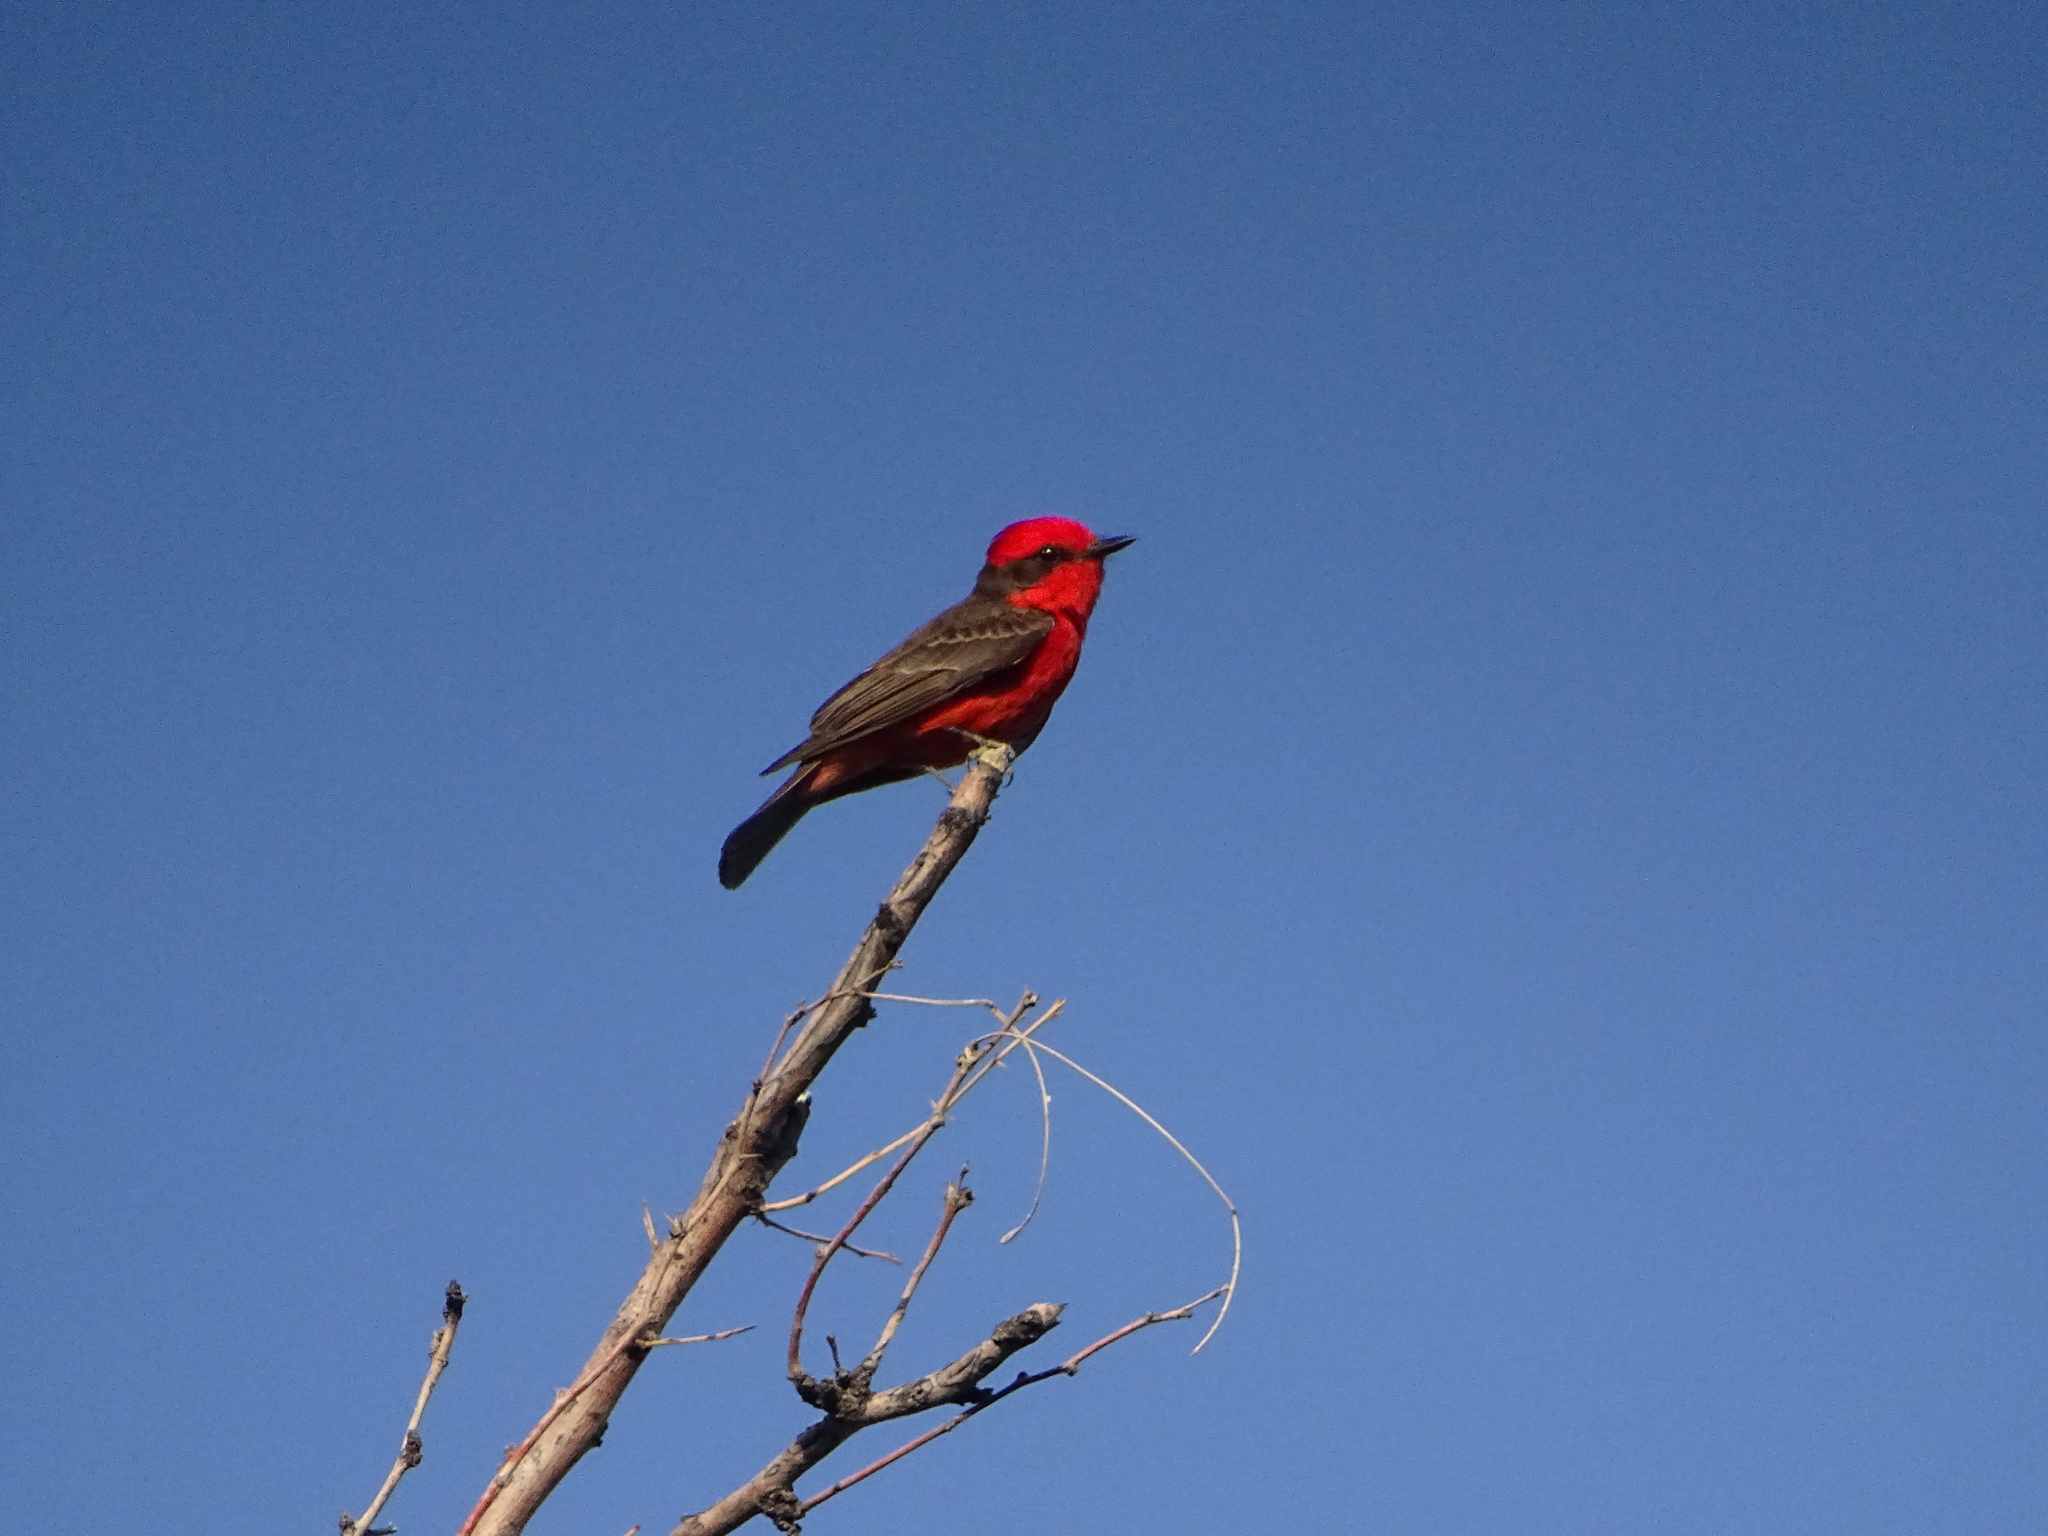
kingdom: Animalia
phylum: Chordata
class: Aves
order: Passeriformes
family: Tyrannidae
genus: Pyrocephalus
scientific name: Pyrocephalus rubinus
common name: Vermilion flycatcher
